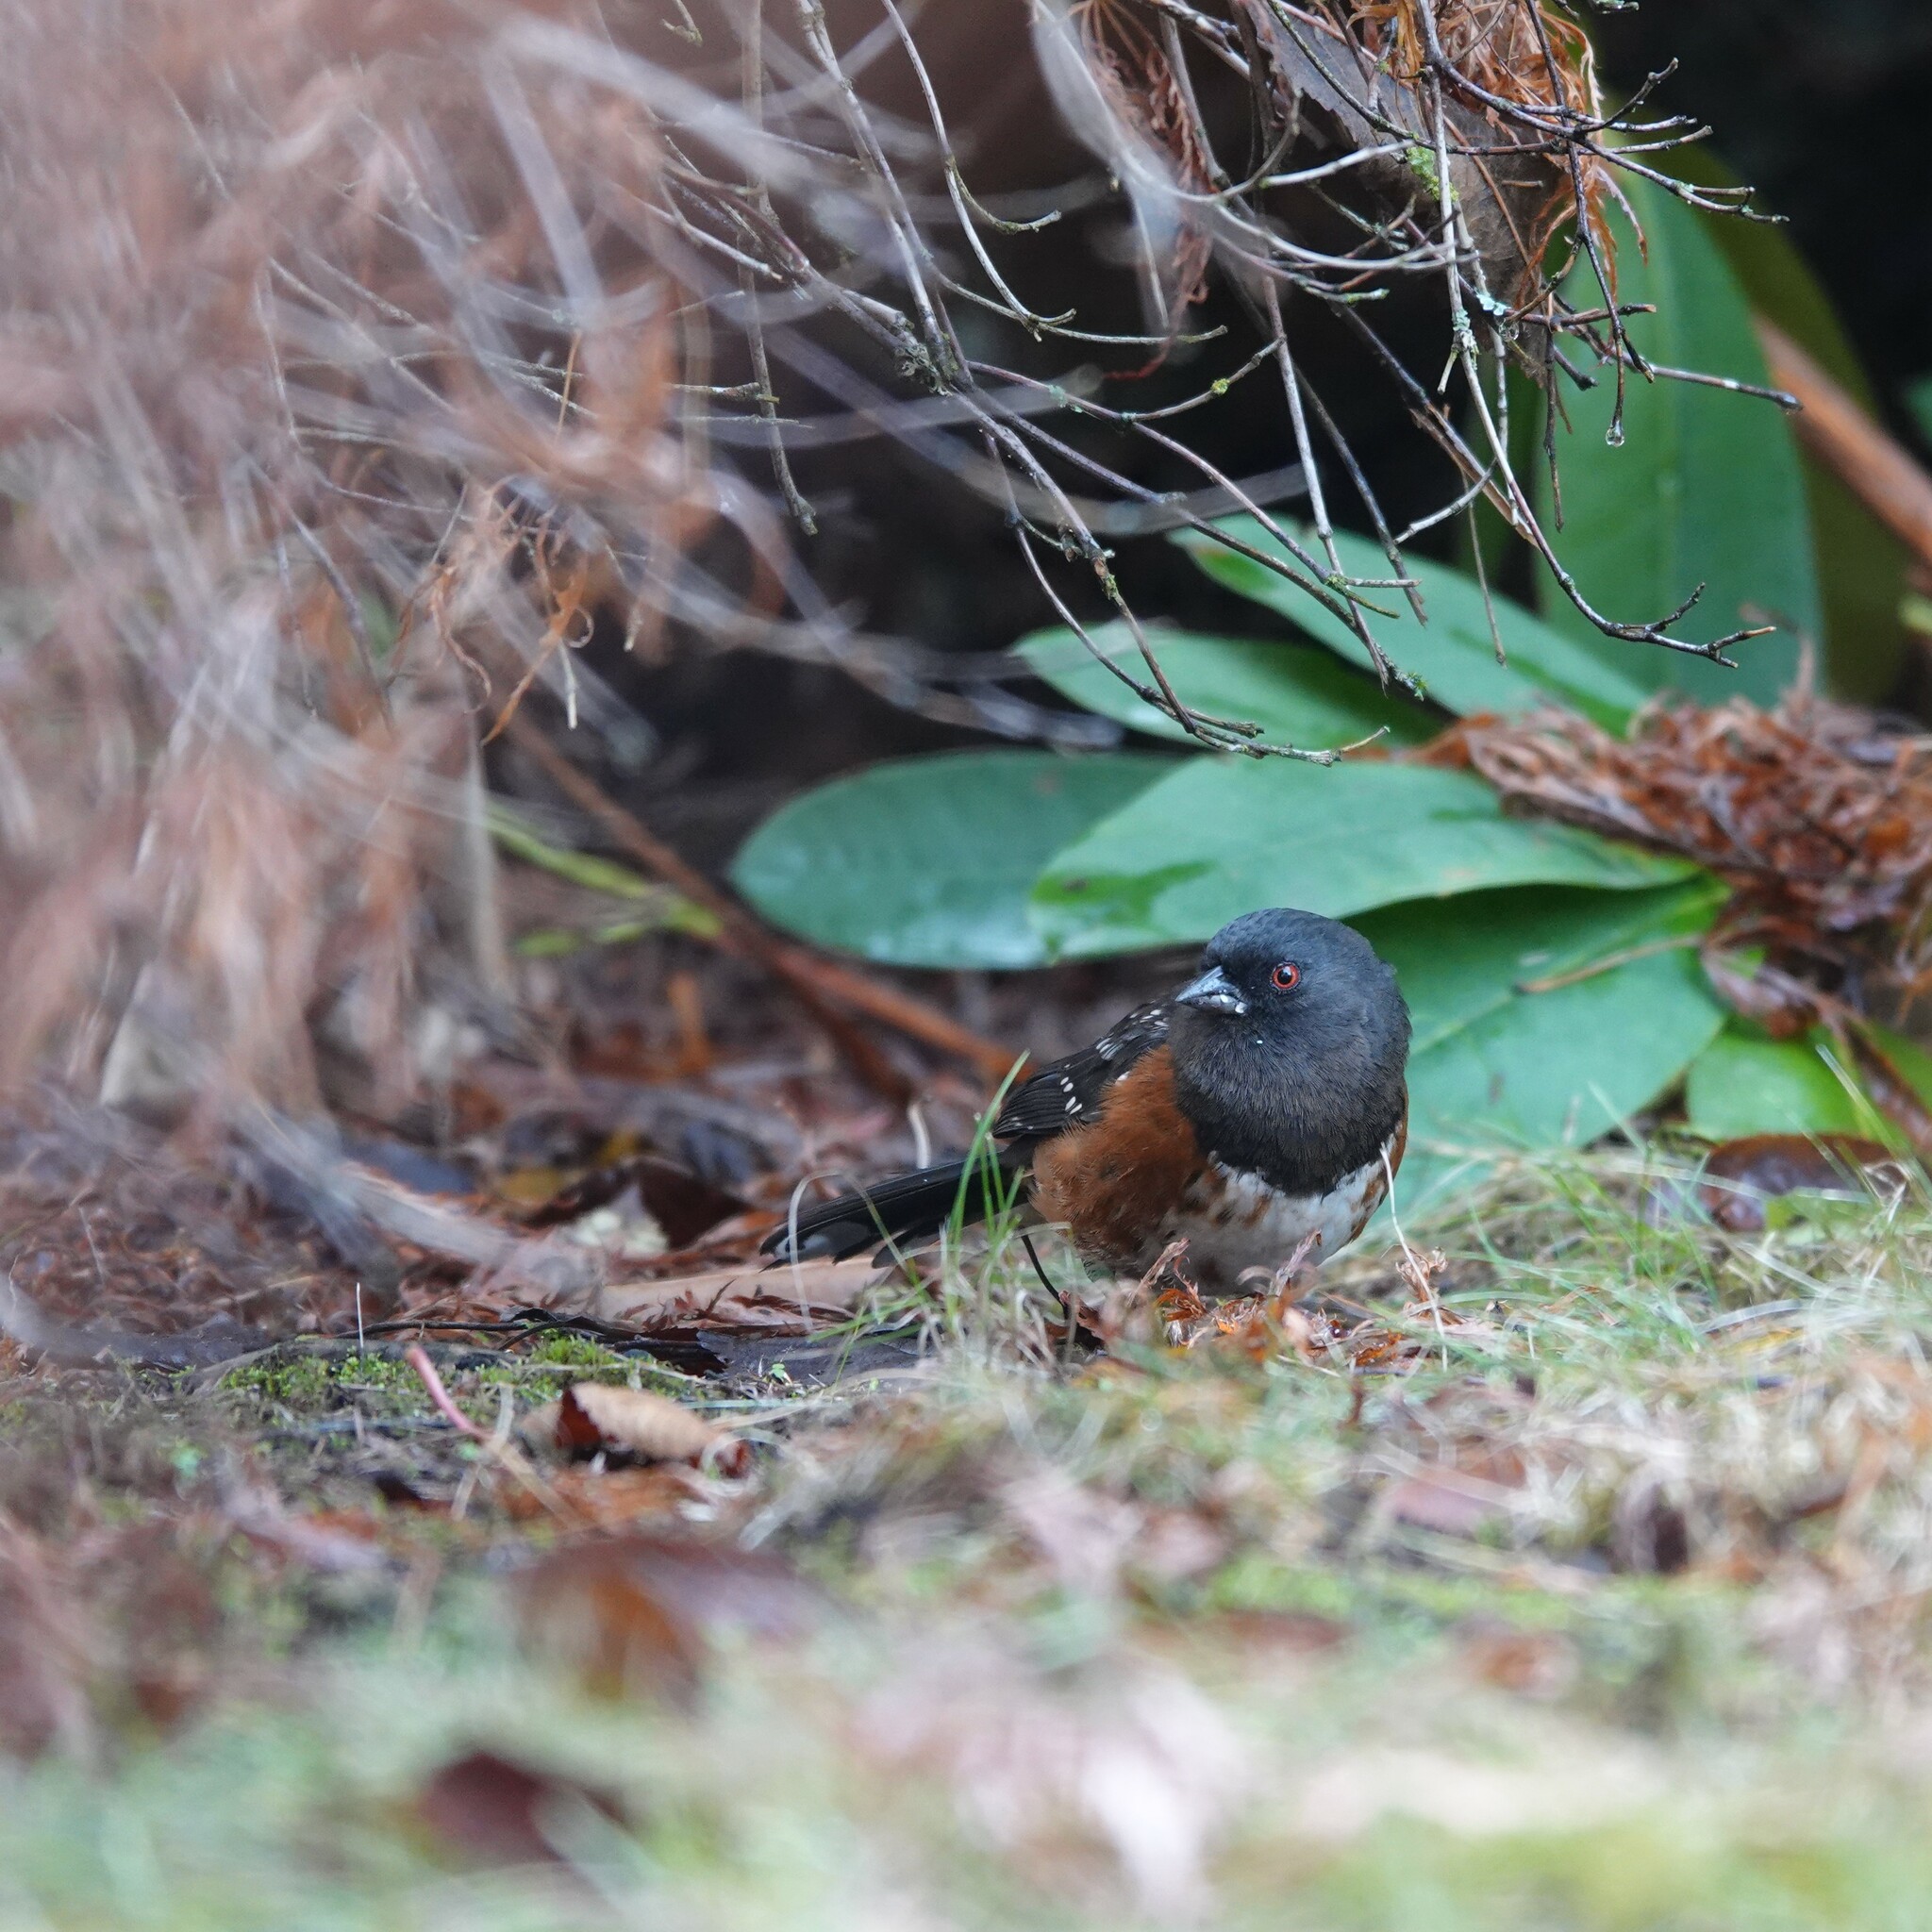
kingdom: Animalia
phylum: Chordata
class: Aves
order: Passeriformes
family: Passerellidae
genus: Pipilo
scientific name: Pipilo maculatus
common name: Spotted towhee
